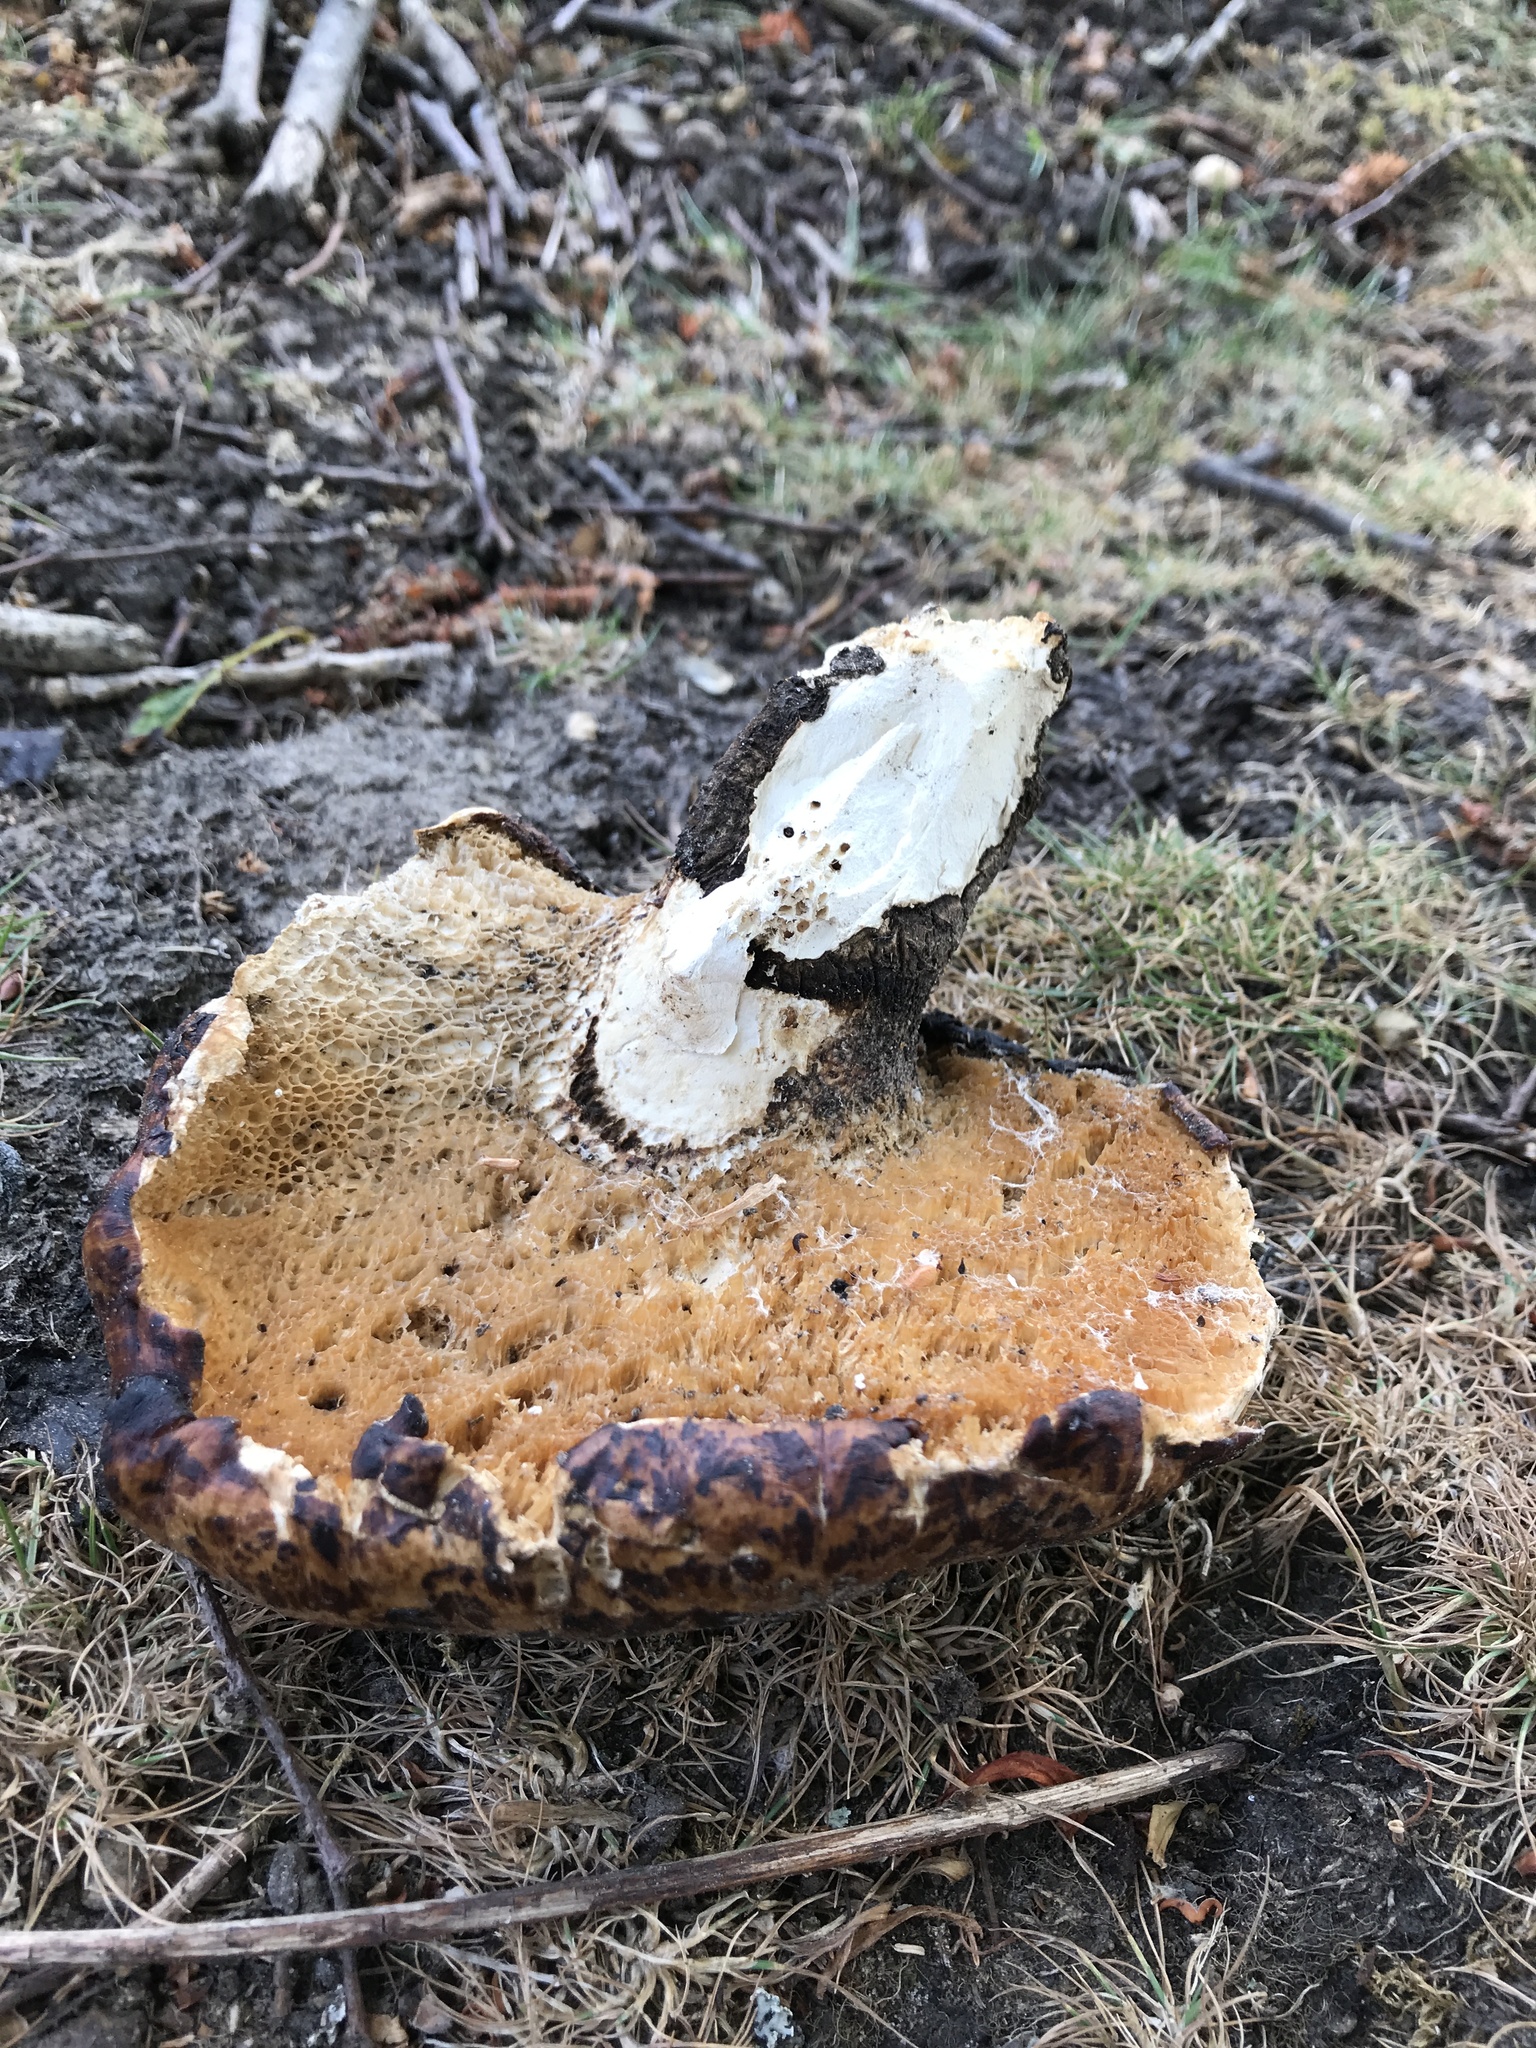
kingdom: Fungi
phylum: Basidiomycota
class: Agaricomycetes
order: Polyporales
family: Polyporaceae
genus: Cerioporus
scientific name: Cerioporus squamosus
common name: Dryad's saddle
